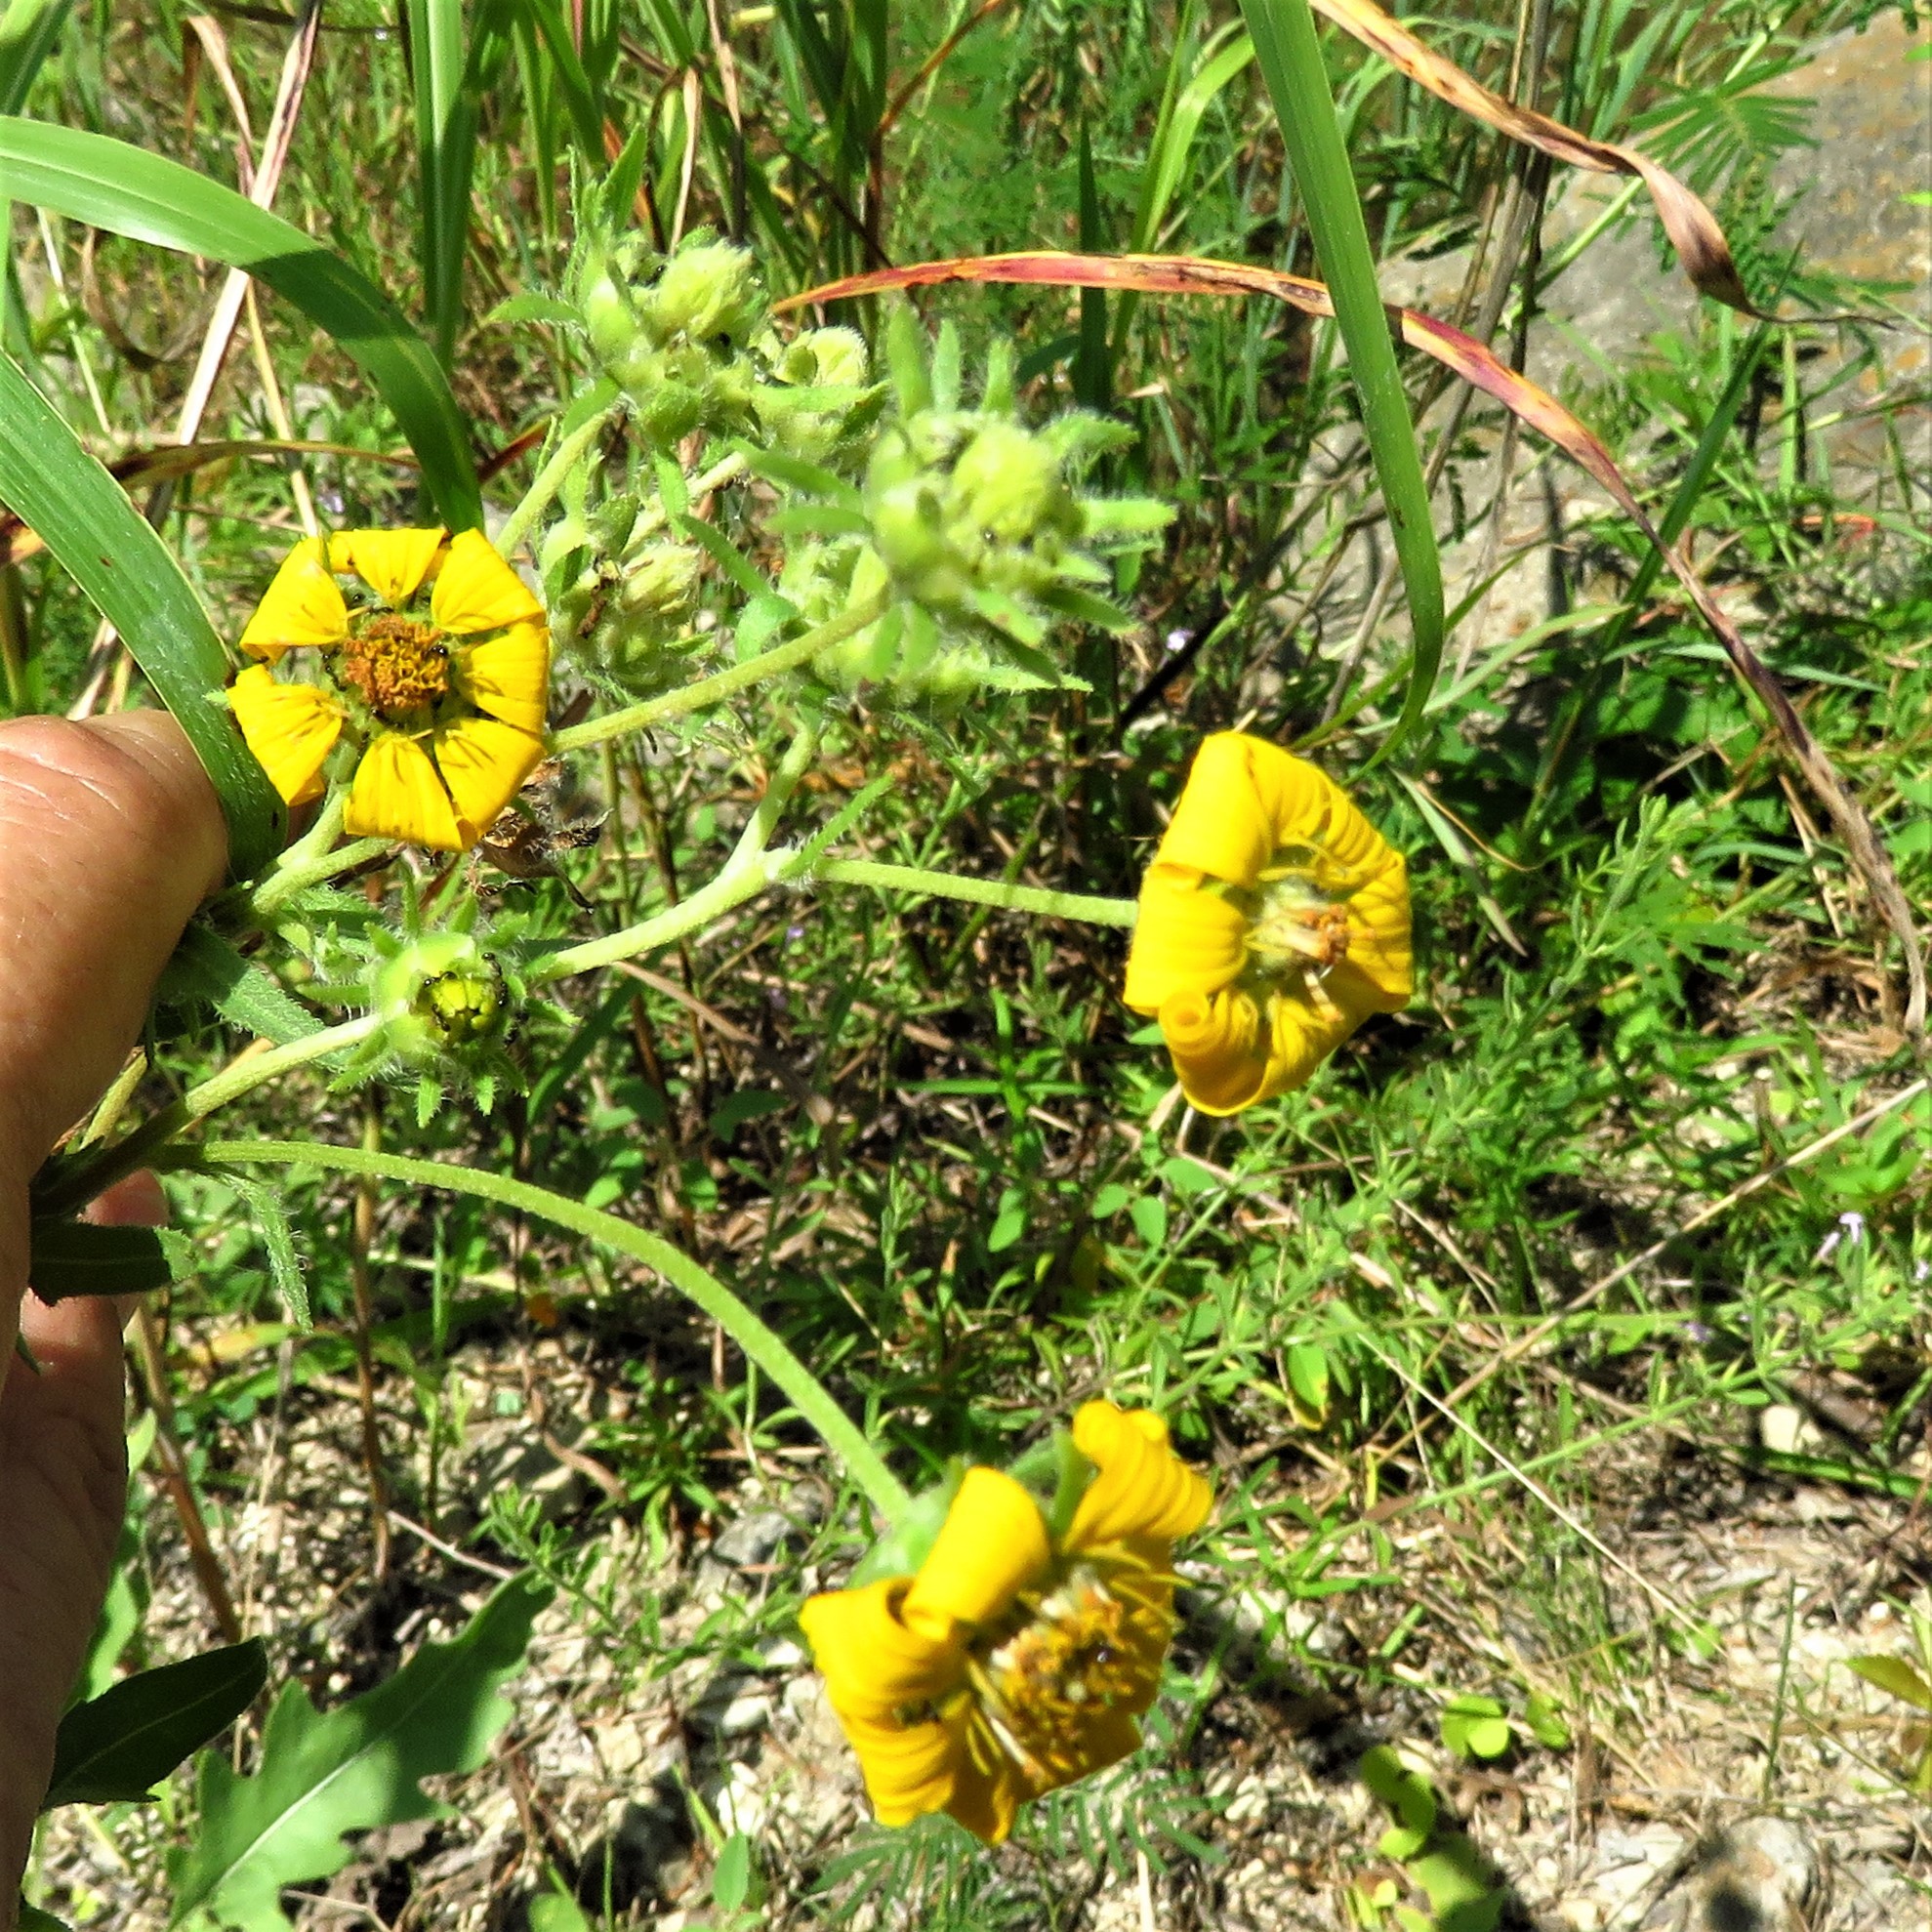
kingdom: Plantae
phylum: Tracheophyta
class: Magnoliopsida
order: Asterales
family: Asteraceae
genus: Engelmannia
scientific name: Engelmannia peristenia
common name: Engelmann's daisy
